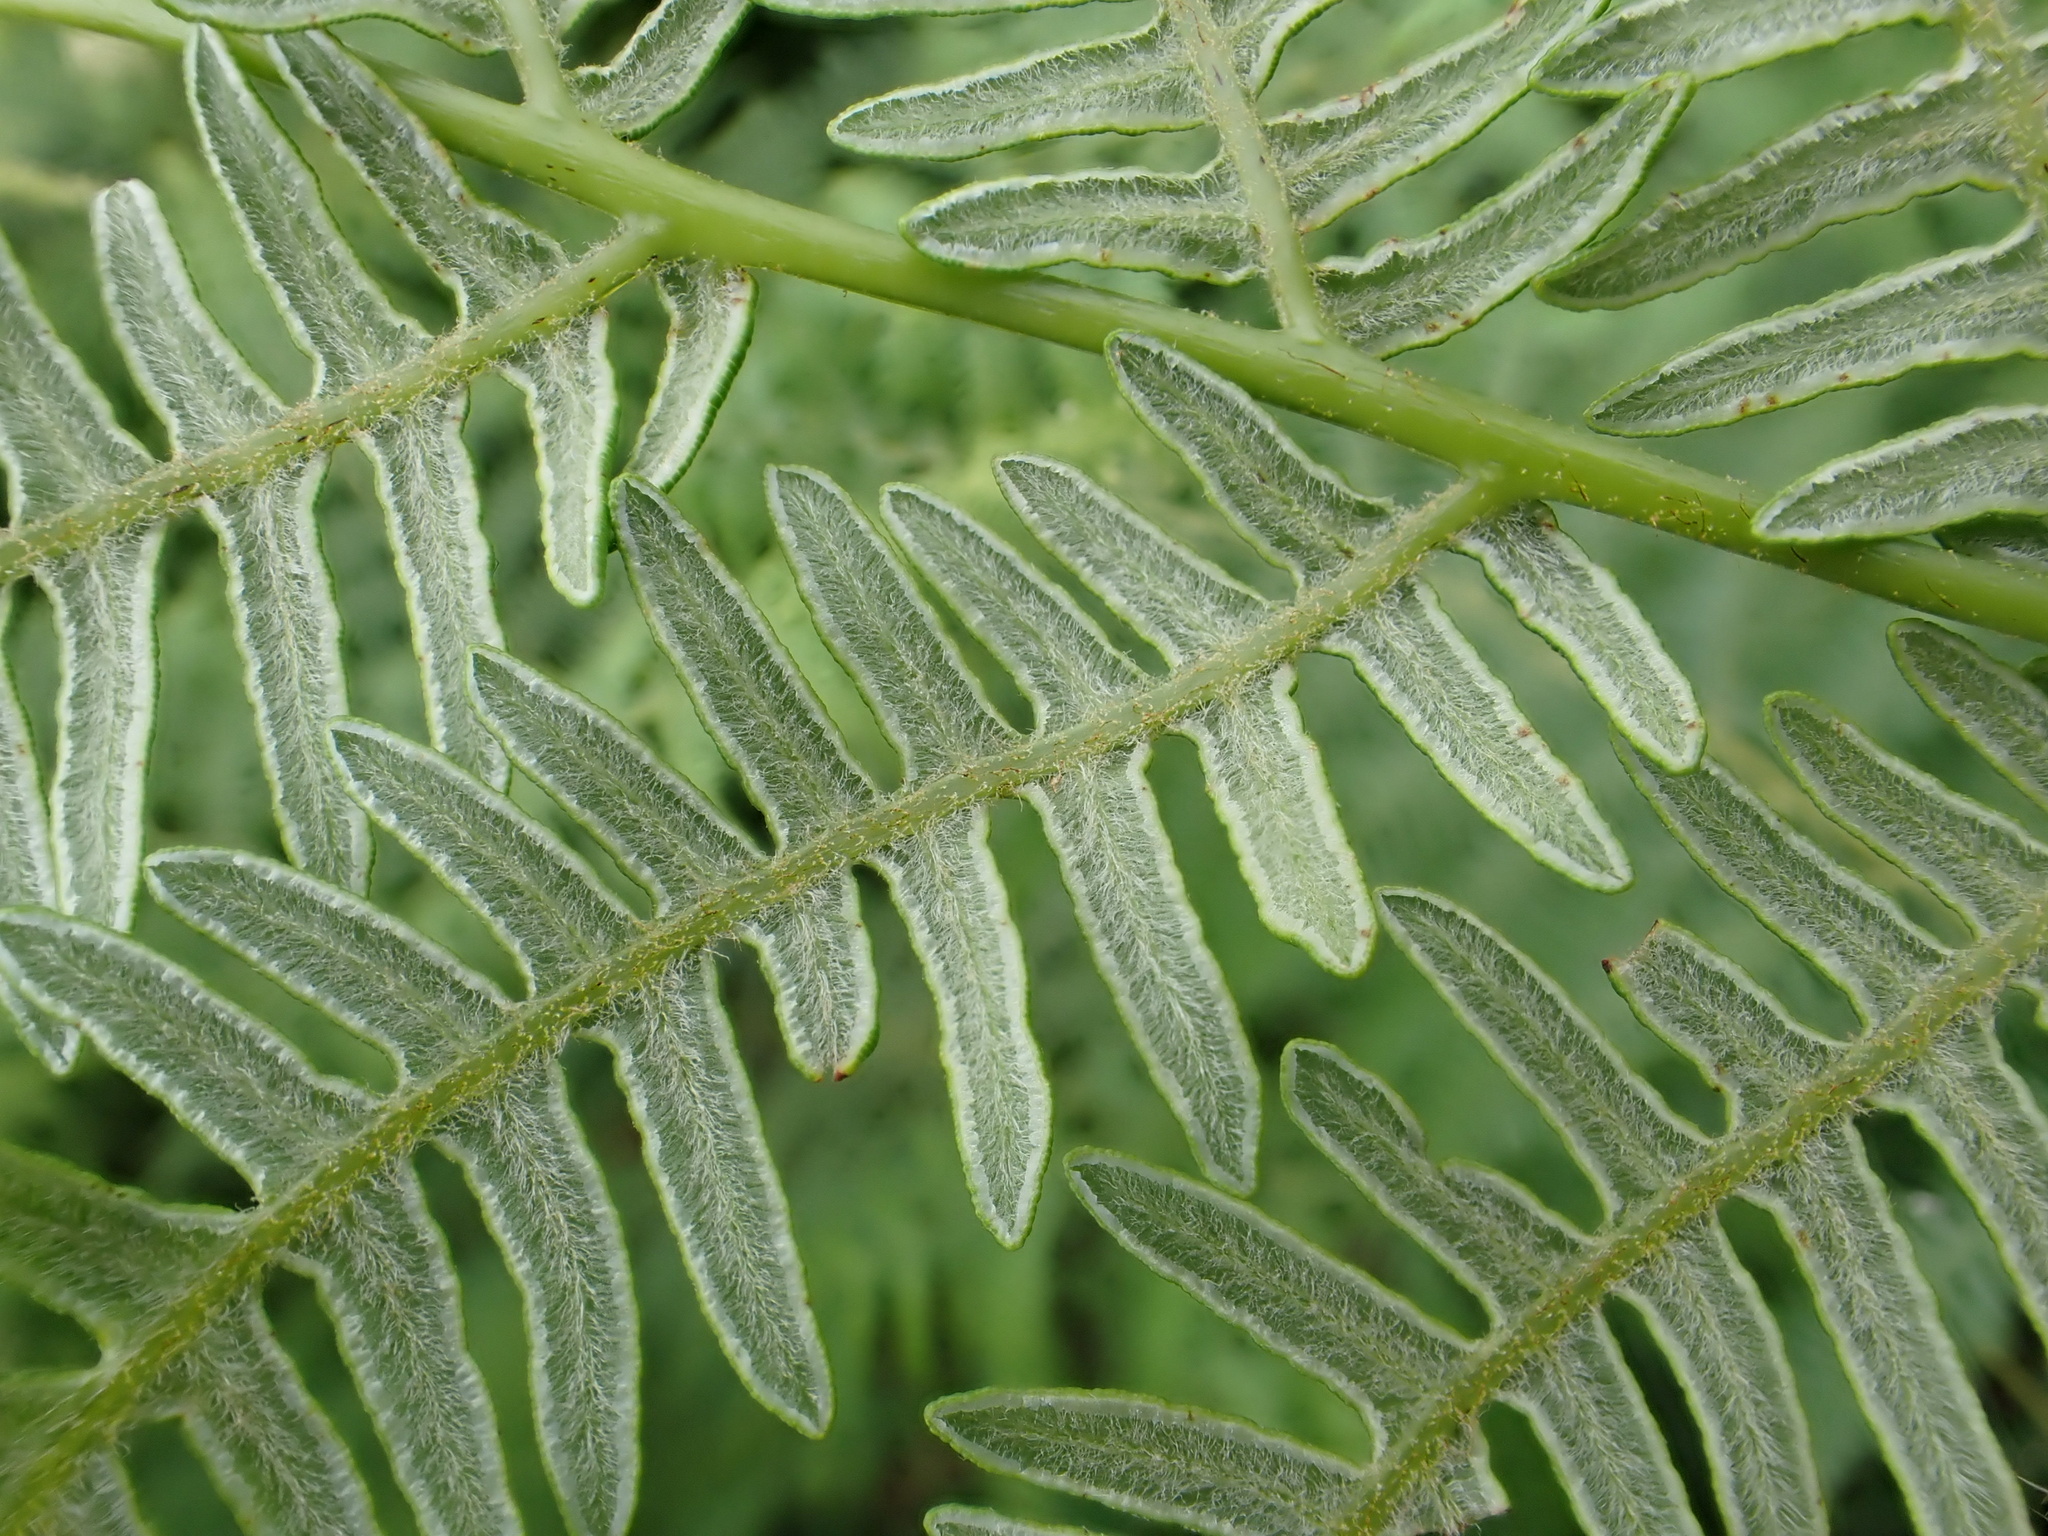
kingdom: Plantae
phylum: Tracheophyta
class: Polypodiopsida
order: Polypodiales
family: Dennstaedtiaceae
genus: Pteridium
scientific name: Pteridium aquilinum
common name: Bracken
